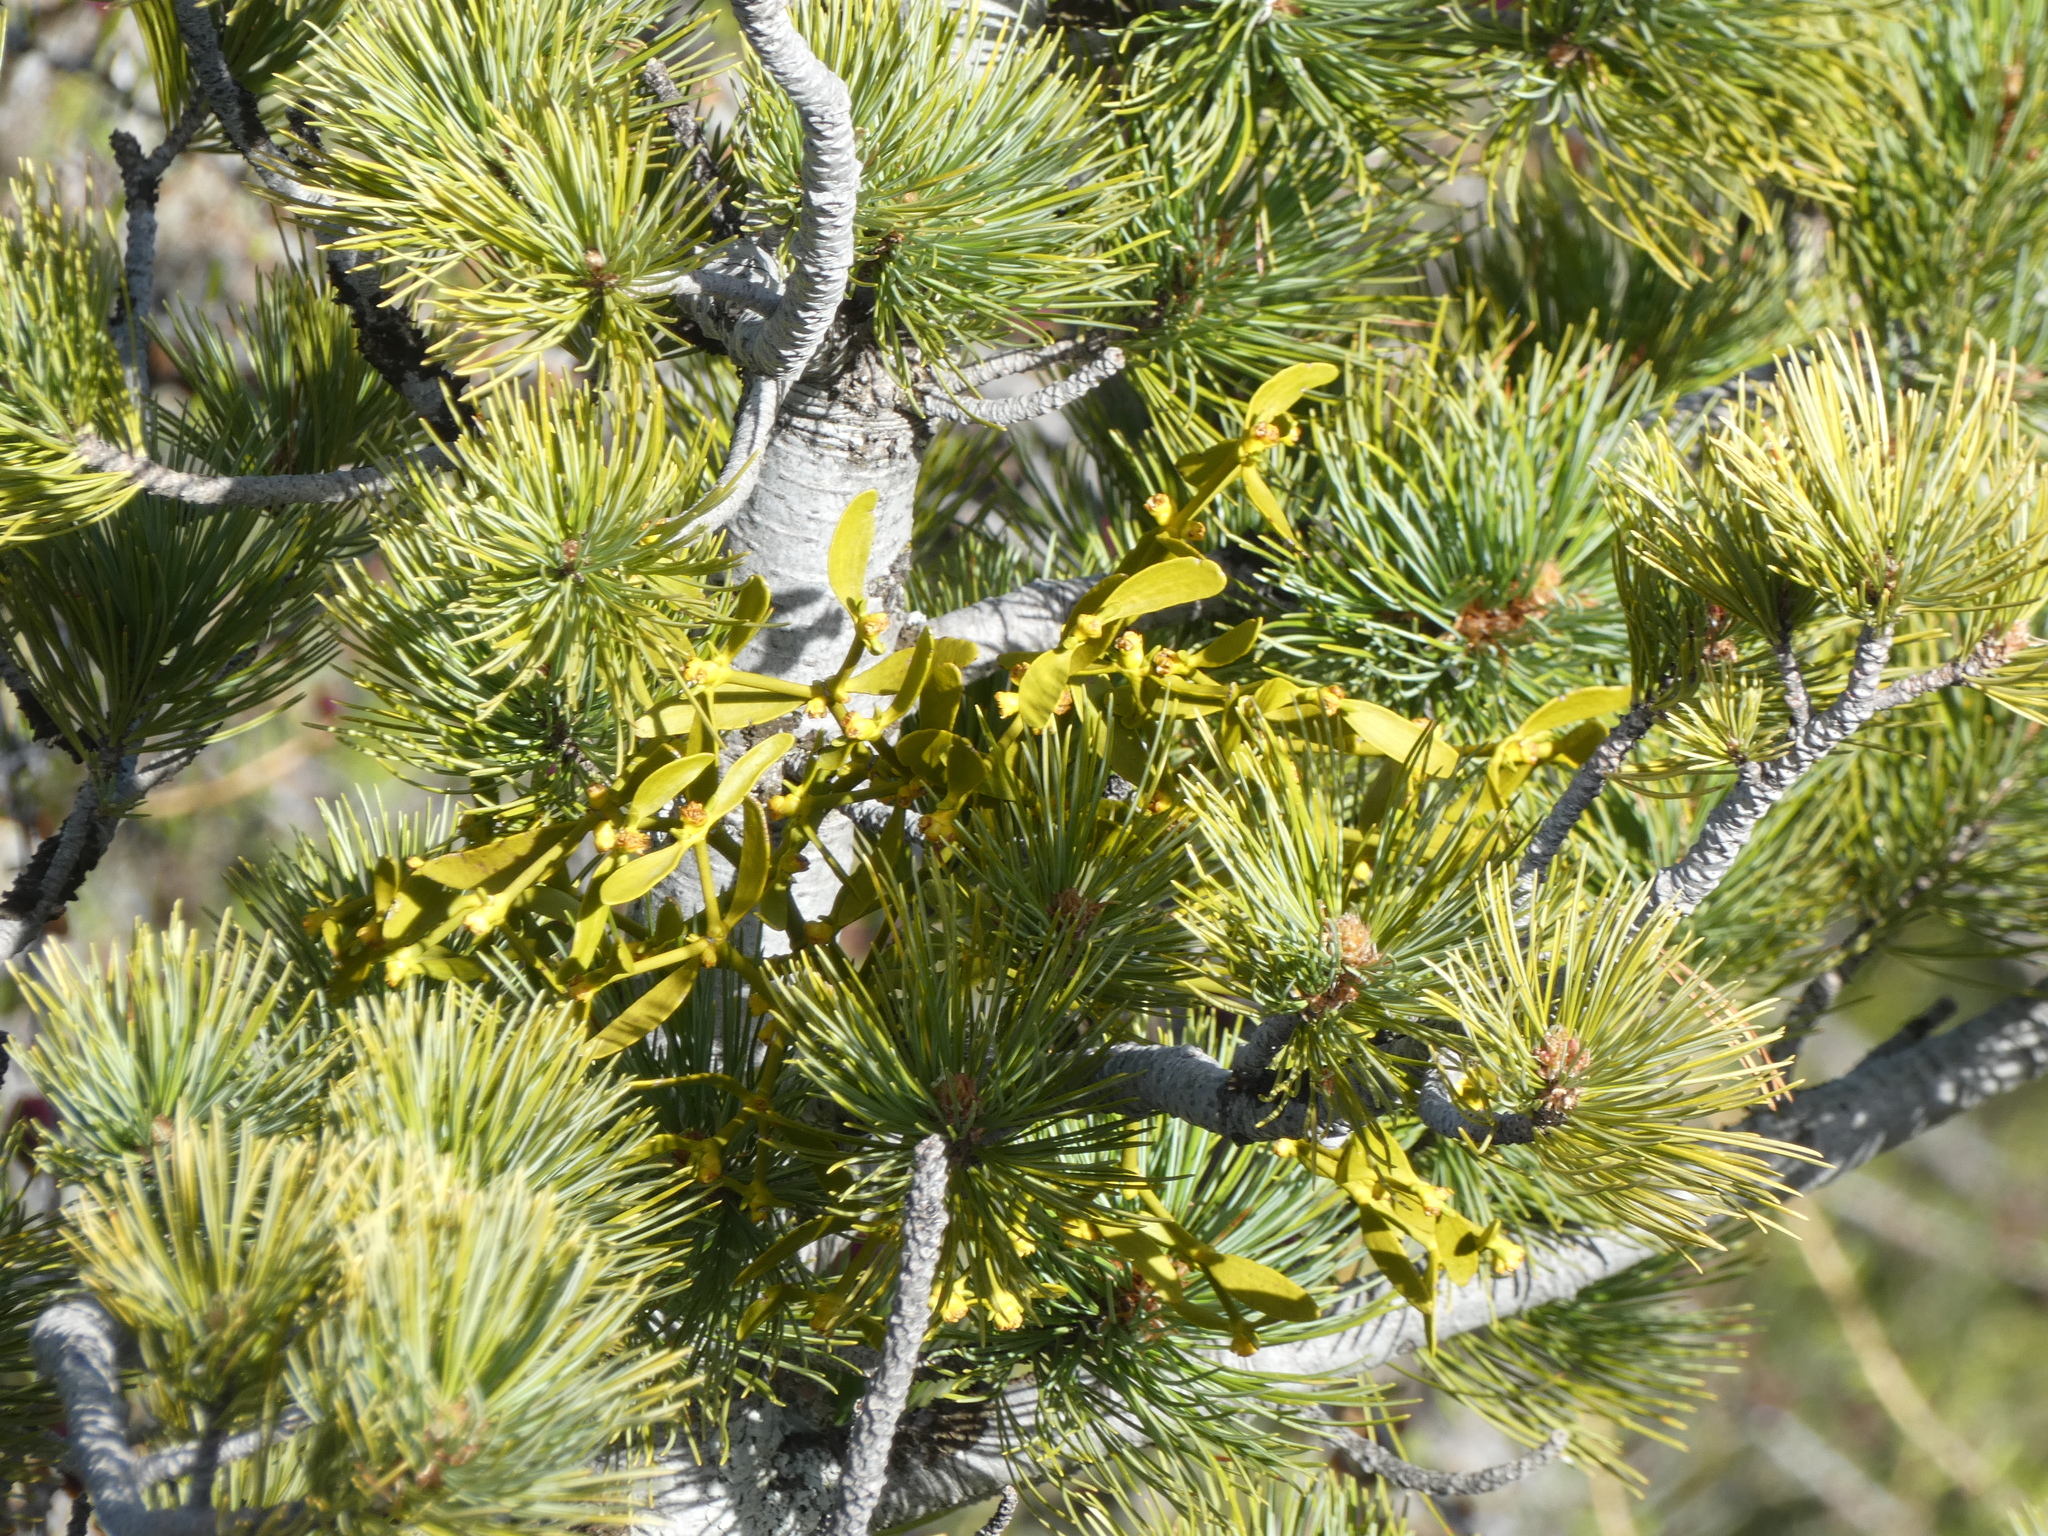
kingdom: Plantae
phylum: Tracheophyta
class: Magnoliopsida
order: Santalales
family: Viscaceae
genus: Viscum
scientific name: Viscum album
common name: Mistletoe
